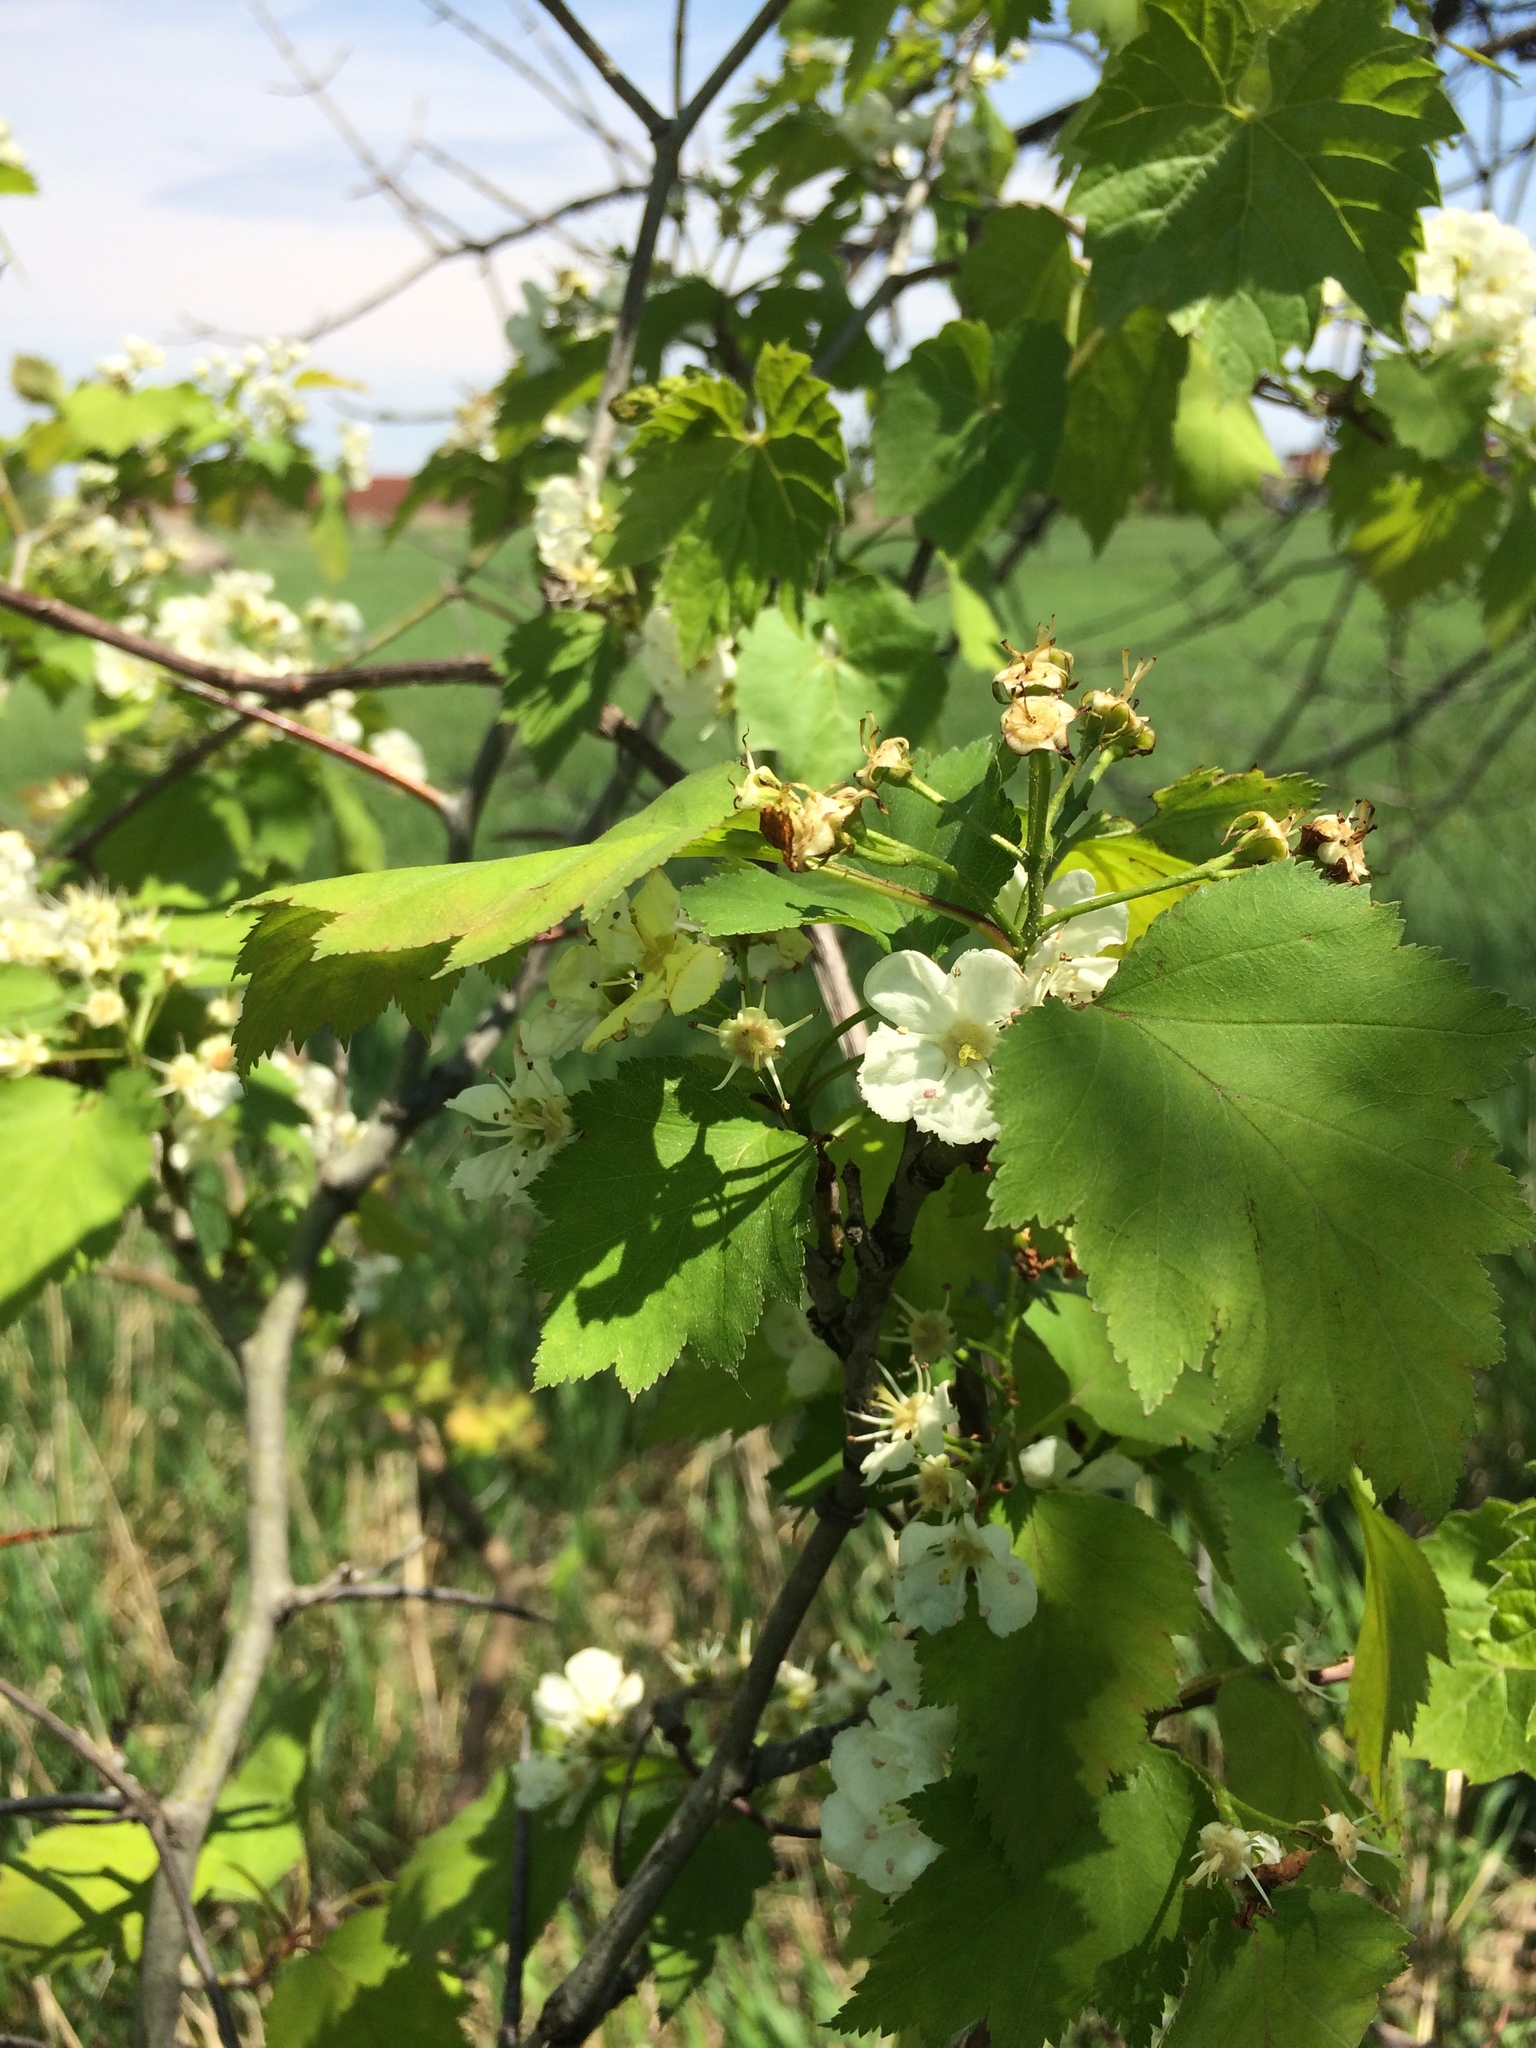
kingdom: Plantae
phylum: Tracheophyta
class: Magnoliopsida
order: Rosales
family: Rosaceae
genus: Crataegus
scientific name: Crataegus fluviatilis
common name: Fort sheridan hawthorn
